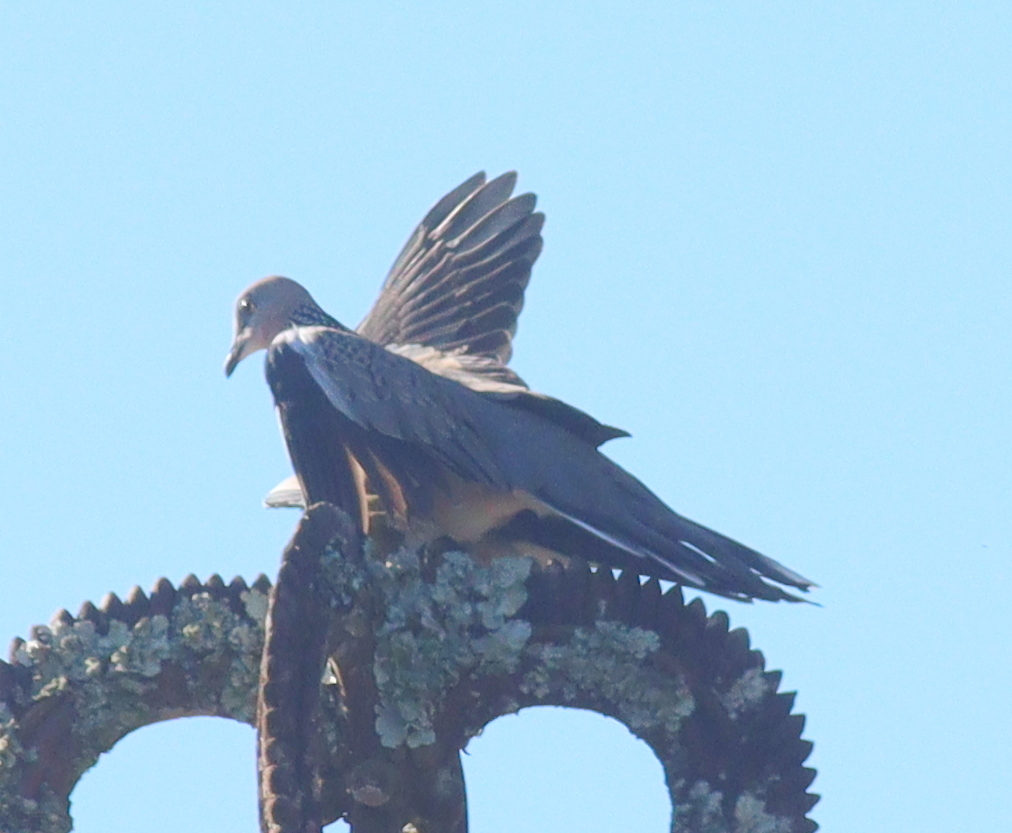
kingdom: Animalia
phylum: Chordata
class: Aves
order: Columbiformes
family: Columbidae
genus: Spilopelia
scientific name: Spilopelia chinensis
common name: Spotted dove
